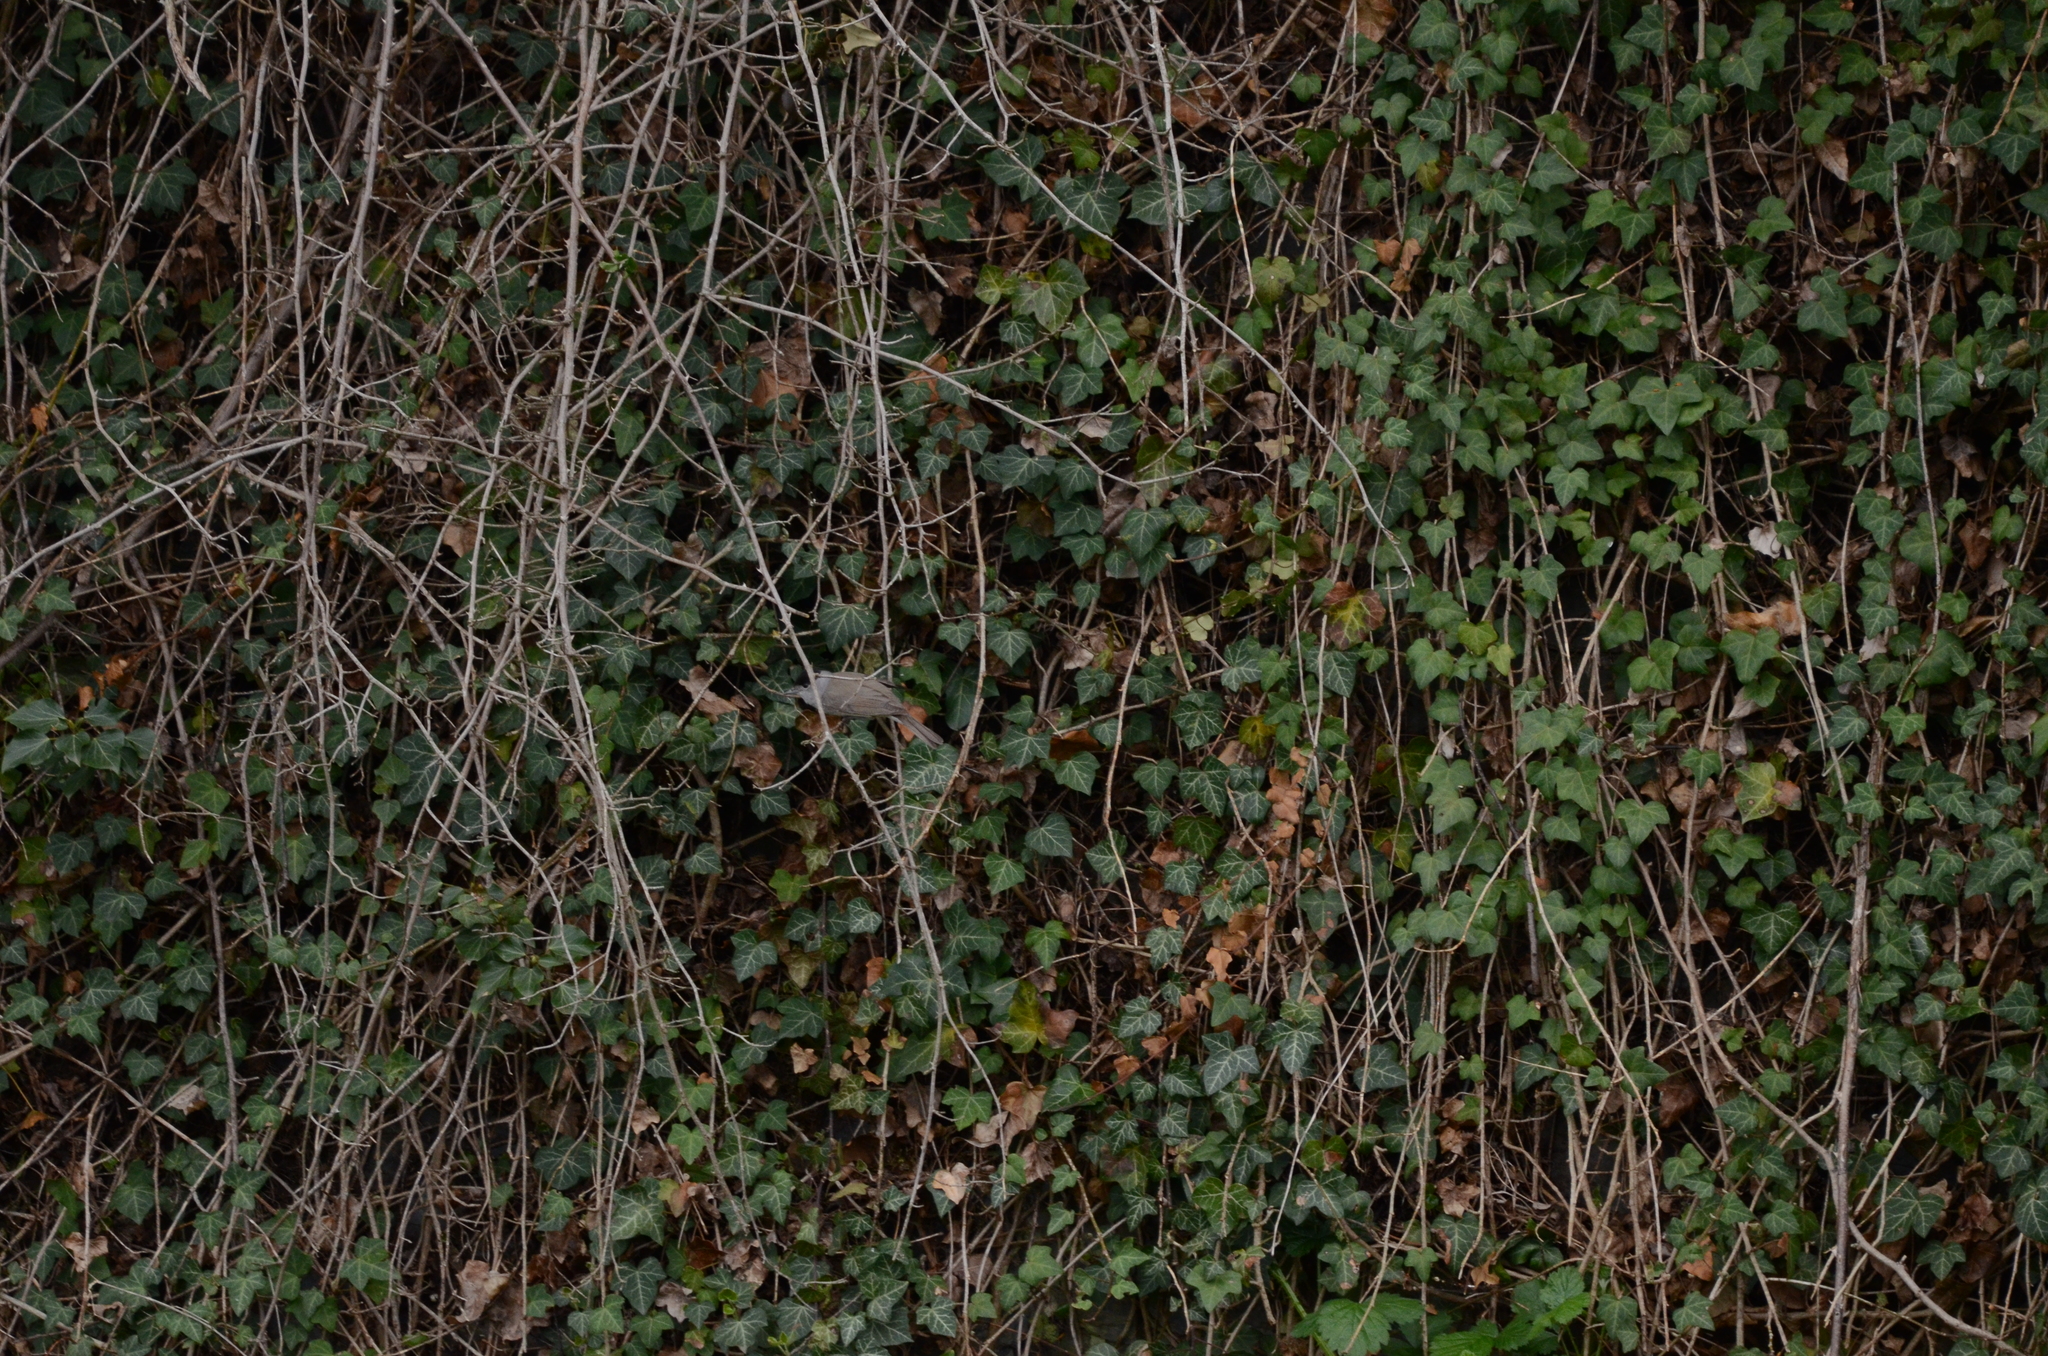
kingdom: Animalia
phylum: Chordata
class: Aves
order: Passeriformes
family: Sylviidae
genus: Sylvia
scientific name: Sylvia atricapilla
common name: Eurasian blackcap
